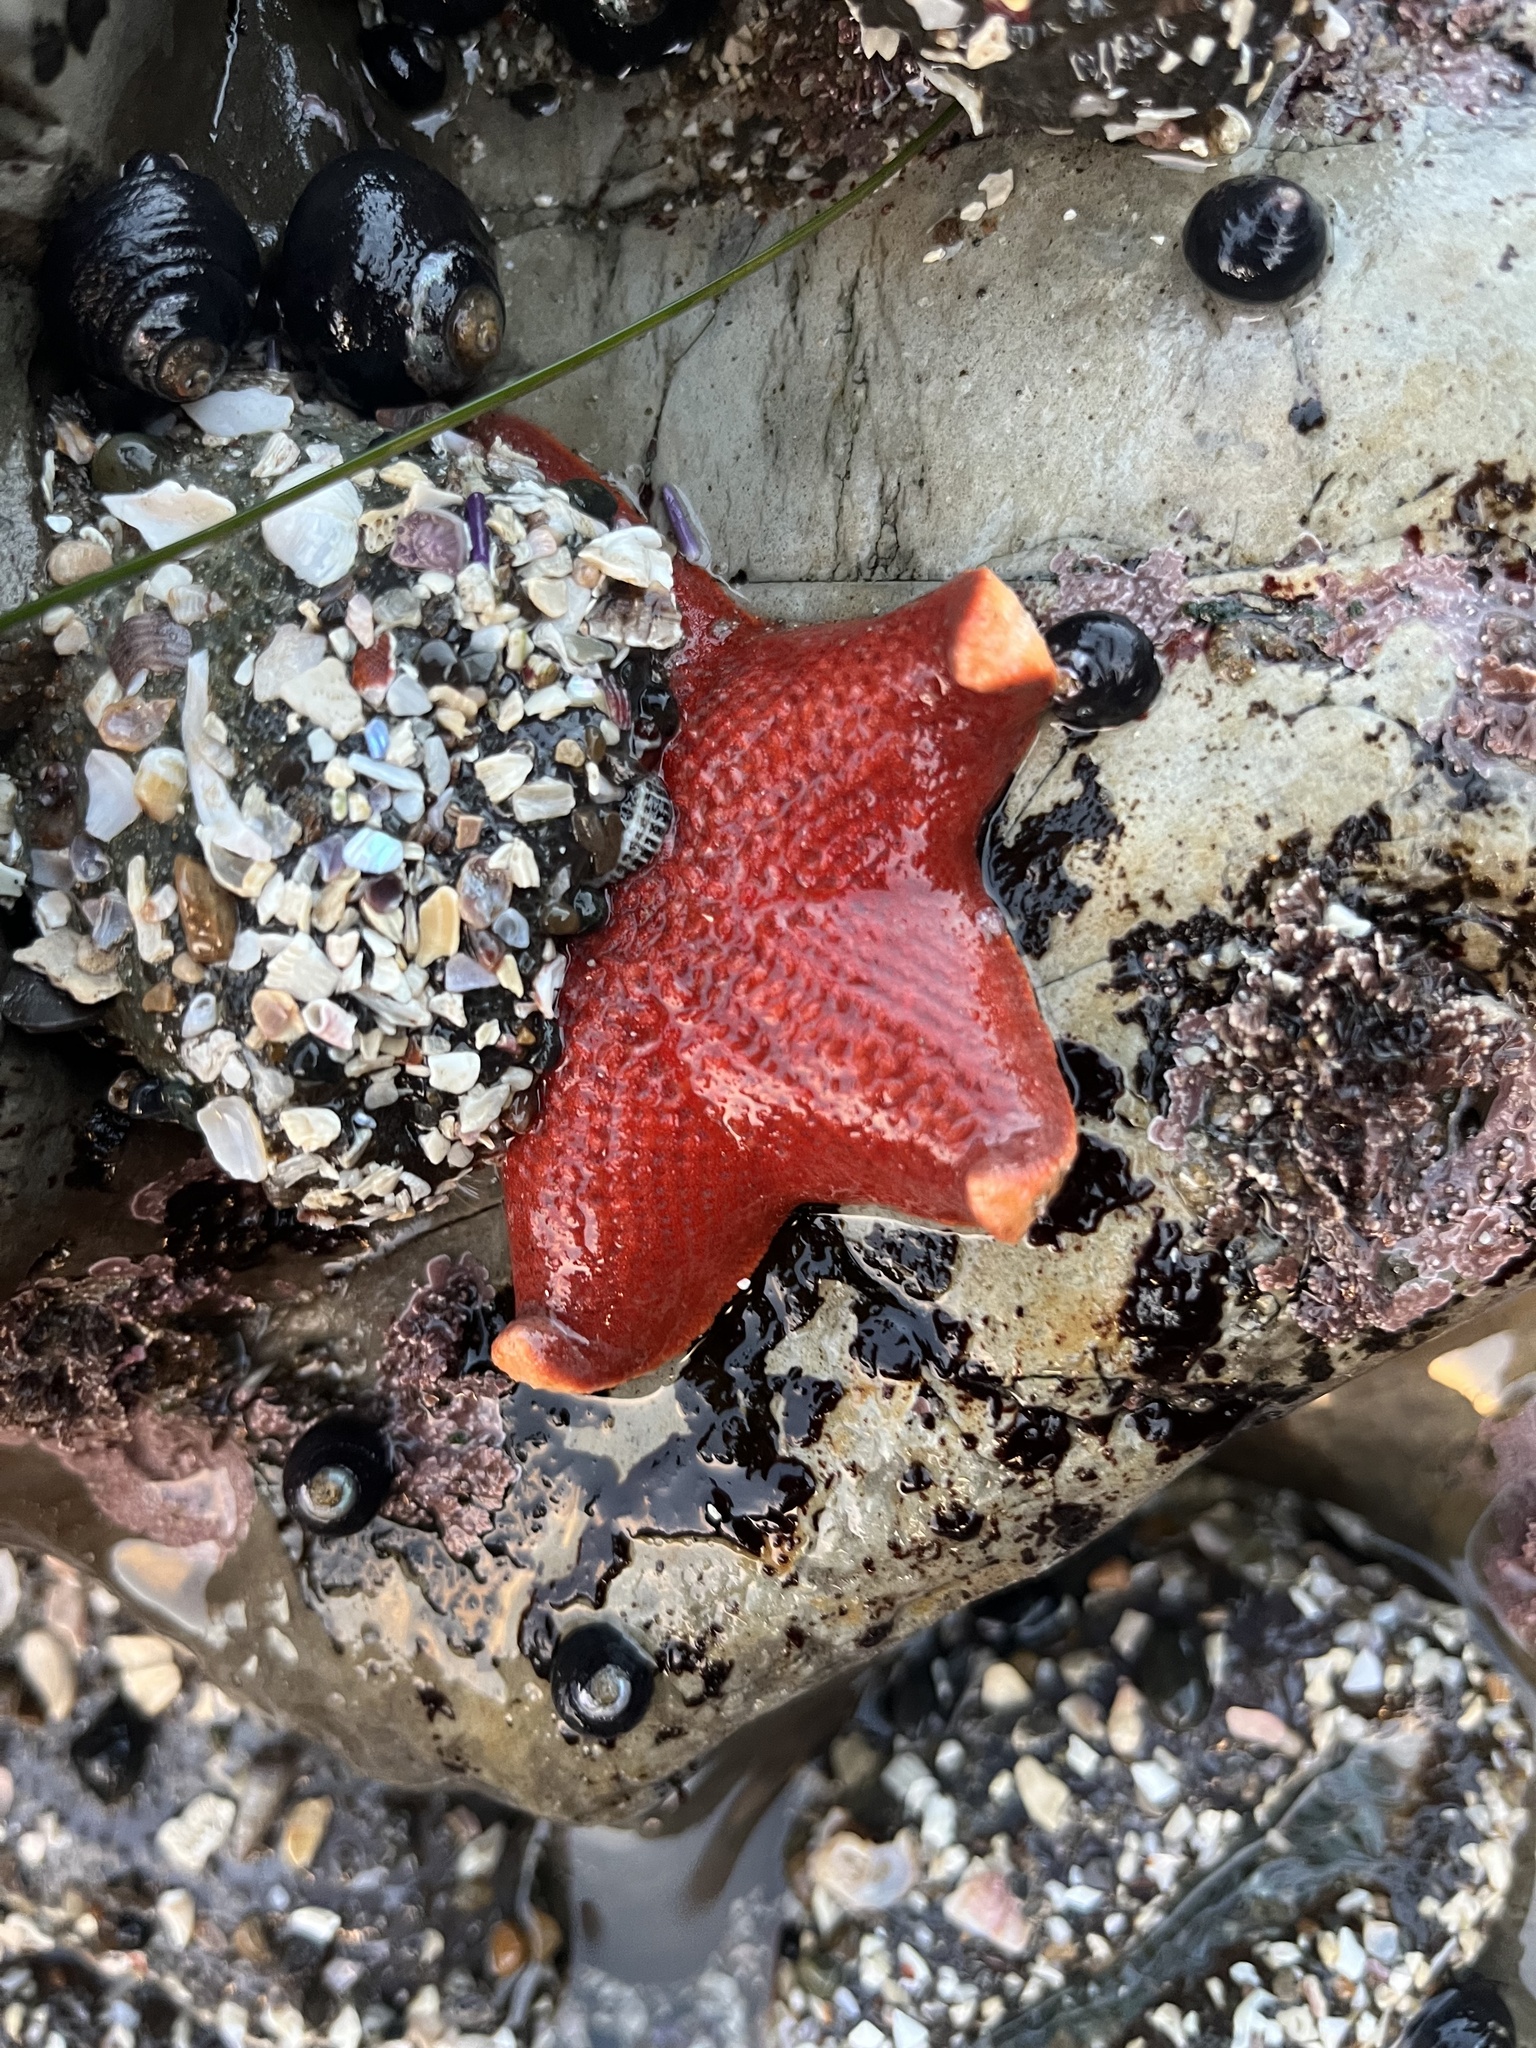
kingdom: Animalia
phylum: Echinodermata
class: Asteroidea
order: Valvatida
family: Asterinidae
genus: Patiria
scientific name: Patiria miniata
